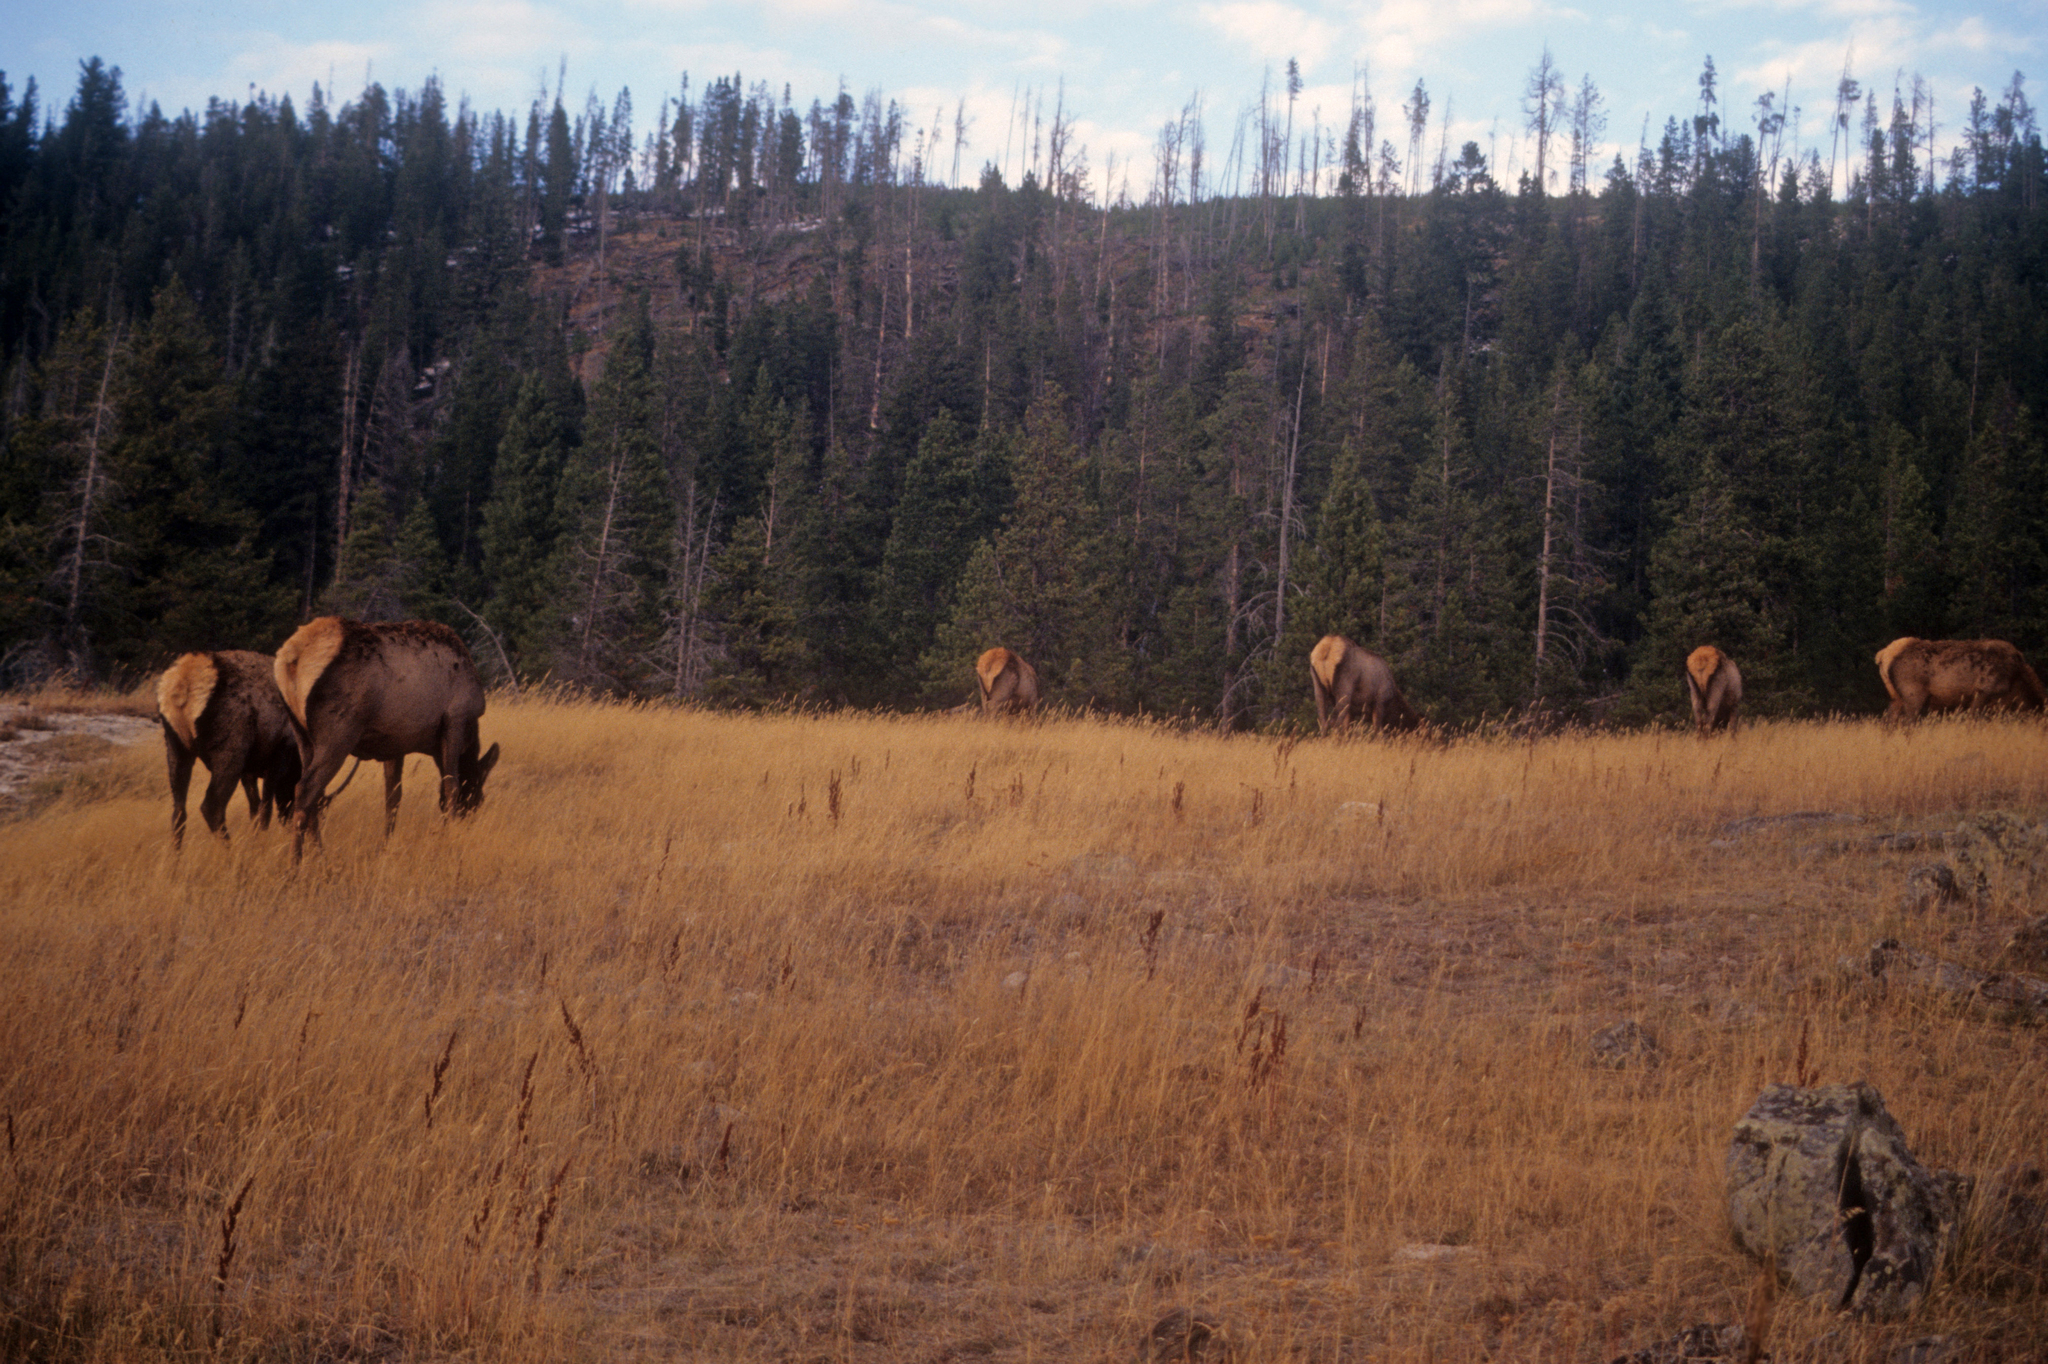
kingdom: Animalia
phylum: Chordata
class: Mammalia
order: Artiodactyla
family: Cervidae
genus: Cervus
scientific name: Cervus elaphus
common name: Red deer
